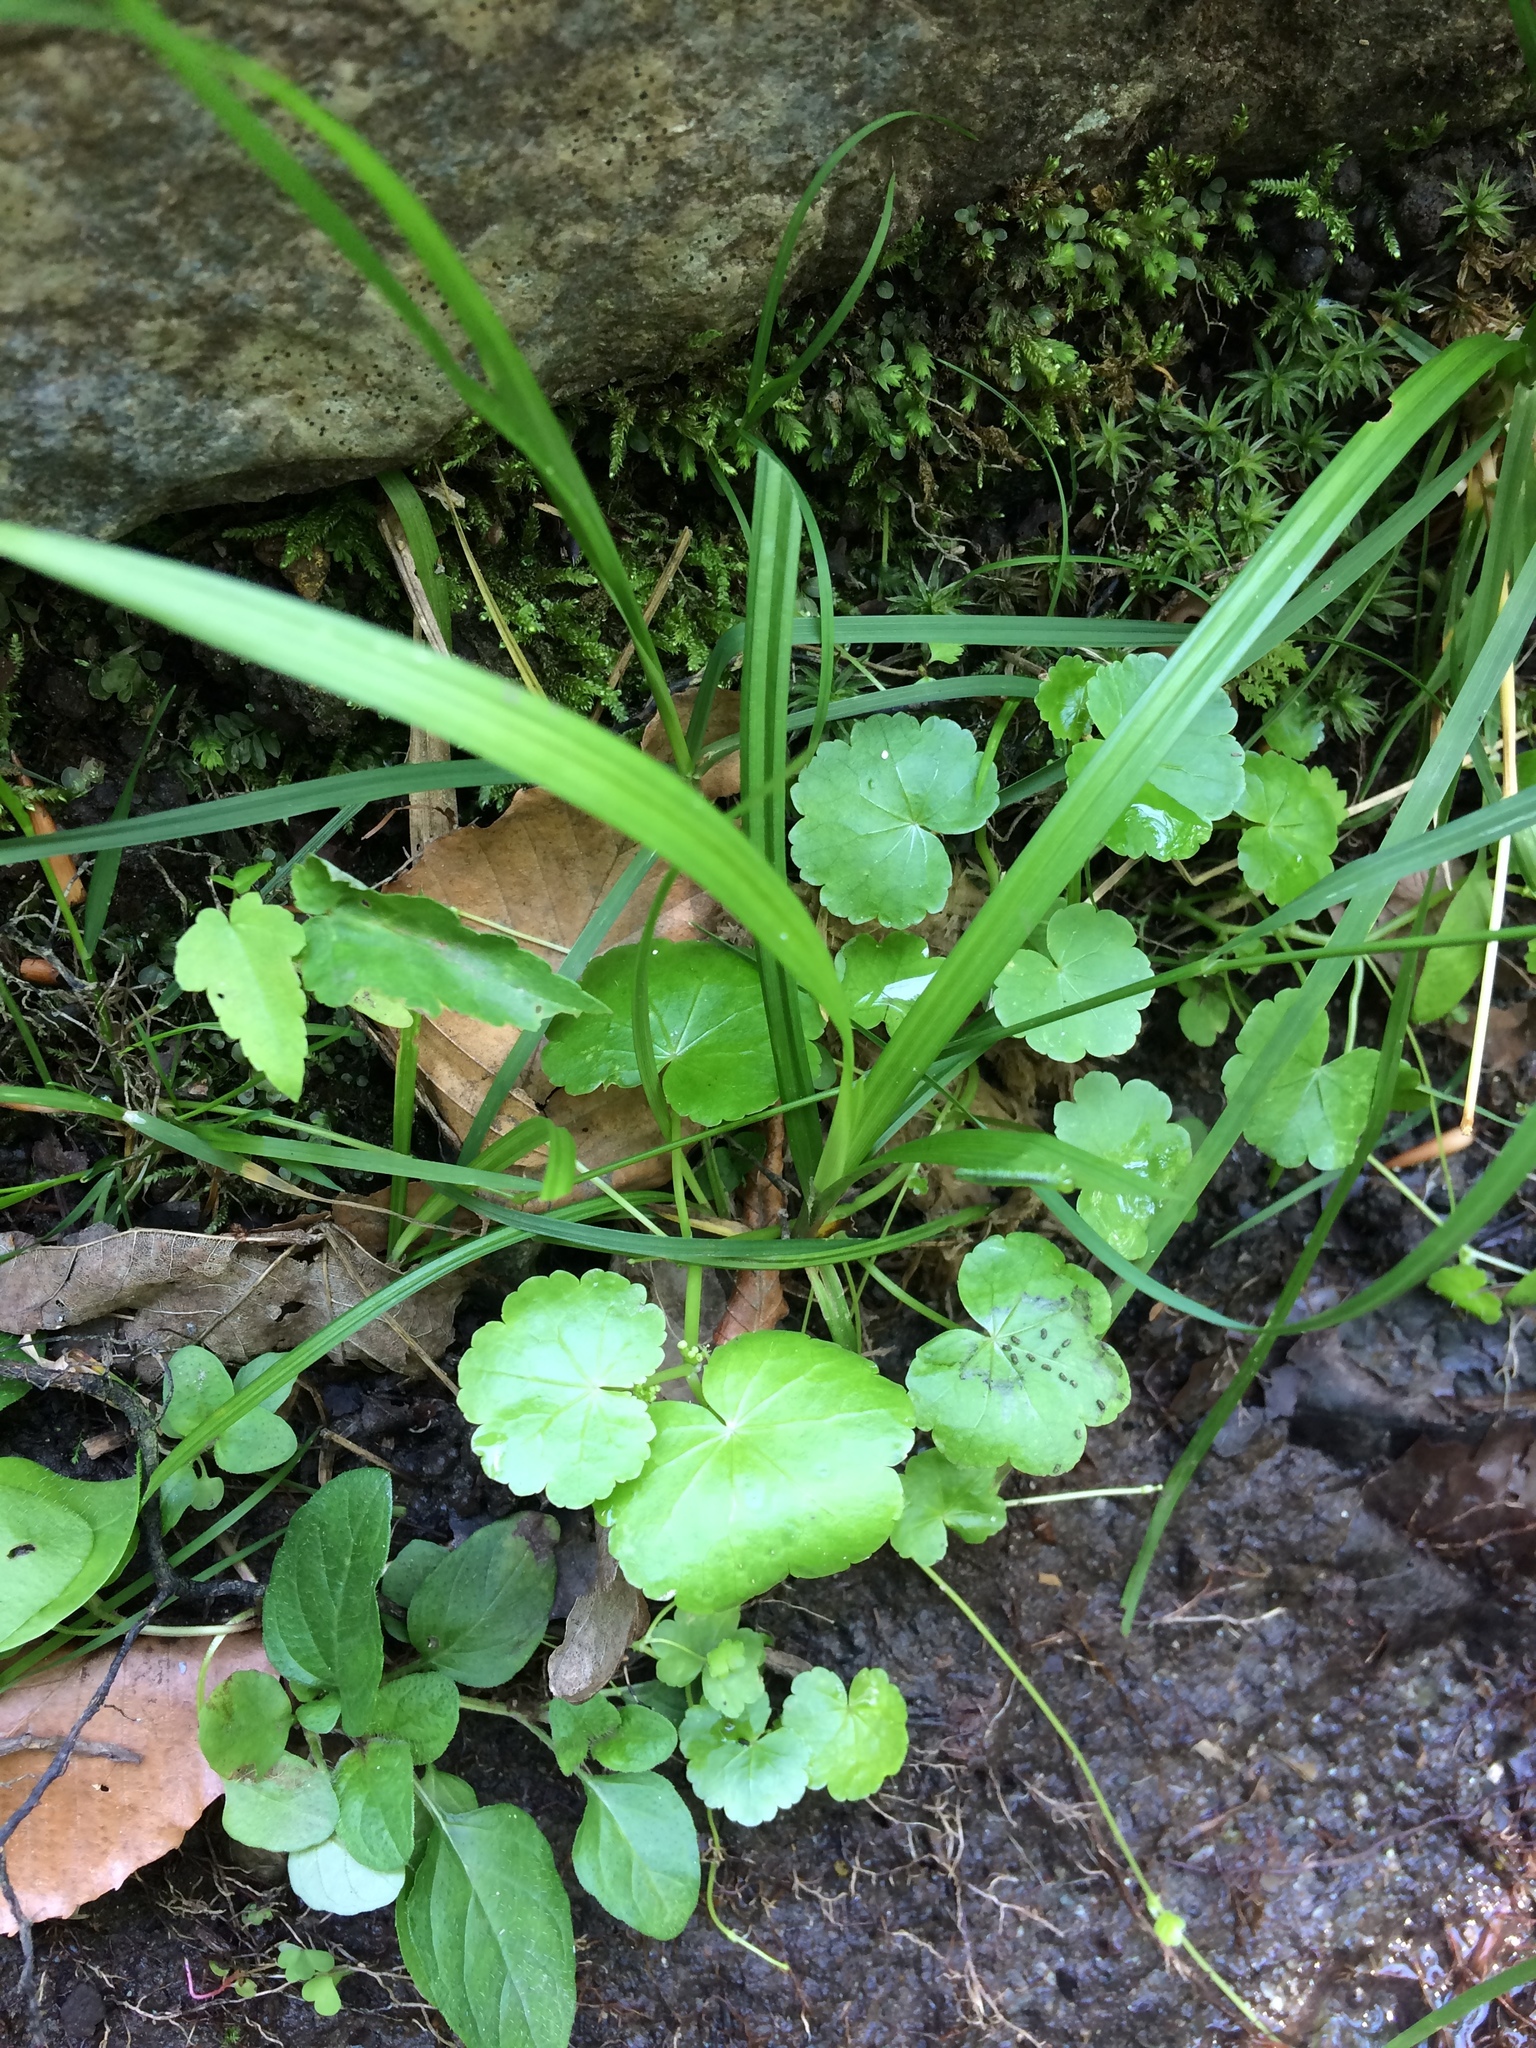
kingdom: Plantae
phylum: Tracheophyta
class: Magnoliopsida
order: Apiales
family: Araliaceae
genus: Hydrocotyle
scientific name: Hydrocotyle americana
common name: American water-pennywort
